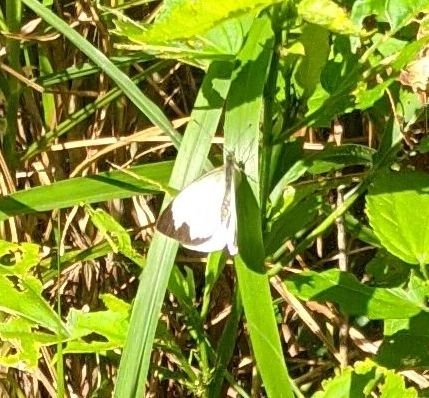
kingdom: Animalia
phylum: Arthropoda
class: Insecta
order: Lepidoptera
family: Pieridae
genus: Leptophobia
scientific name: Leptophobia aripa
